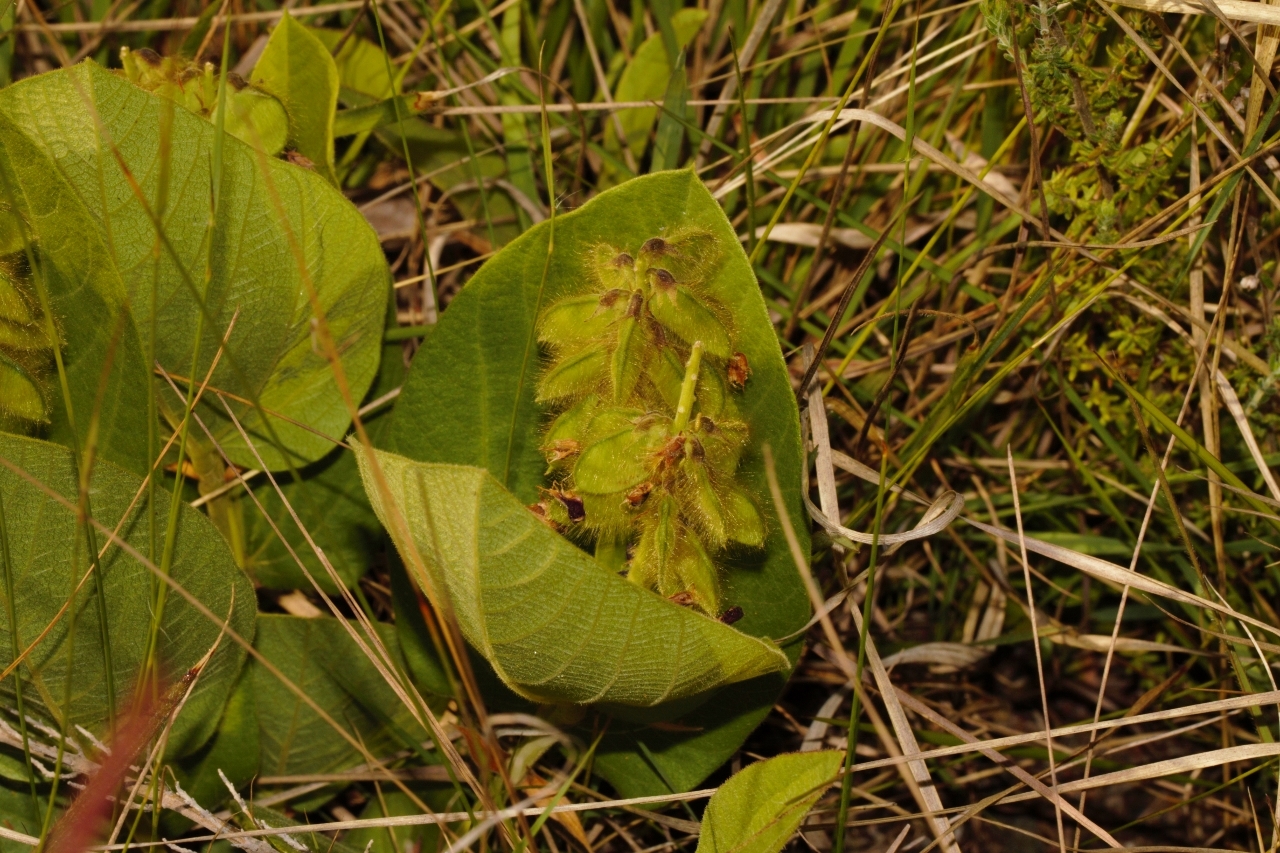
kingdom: Plantae
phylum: Tracheophyta
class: Magnoliopsida
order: Fabales
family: Fabaceae
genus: Eriosema
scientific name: Eriosema chrysadenium
